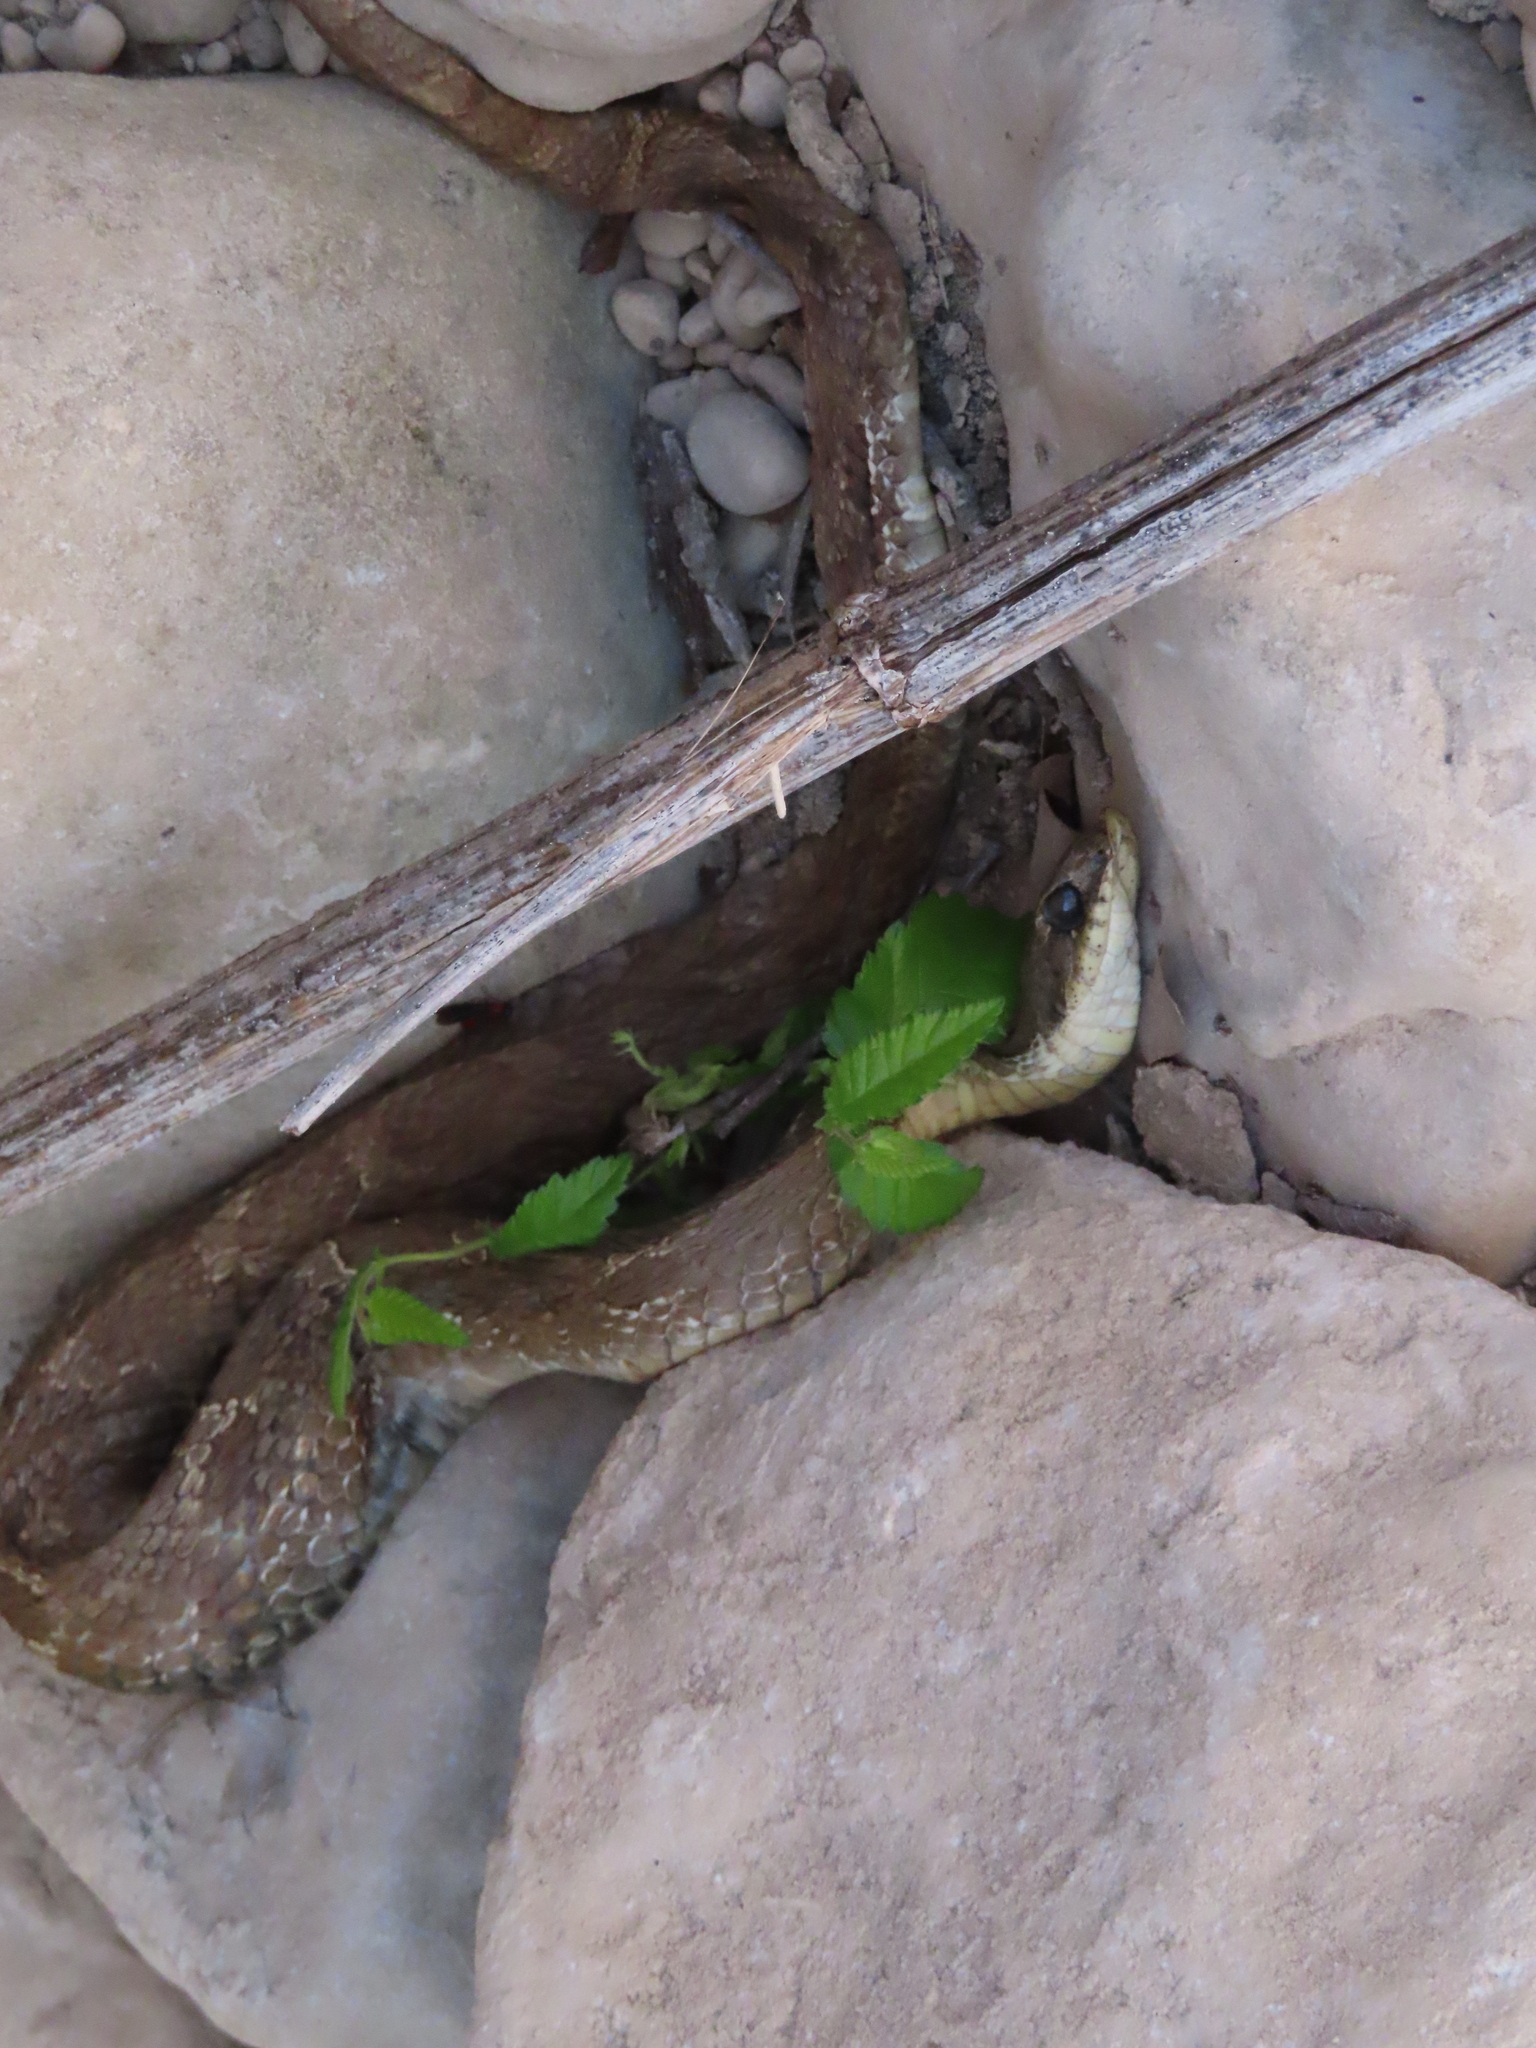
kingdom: Animalia
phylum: Chordata
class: Squamata
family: Colubridae
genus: Heterodon
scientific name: Heterodon platirhinos
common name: Eastern hognose snake
